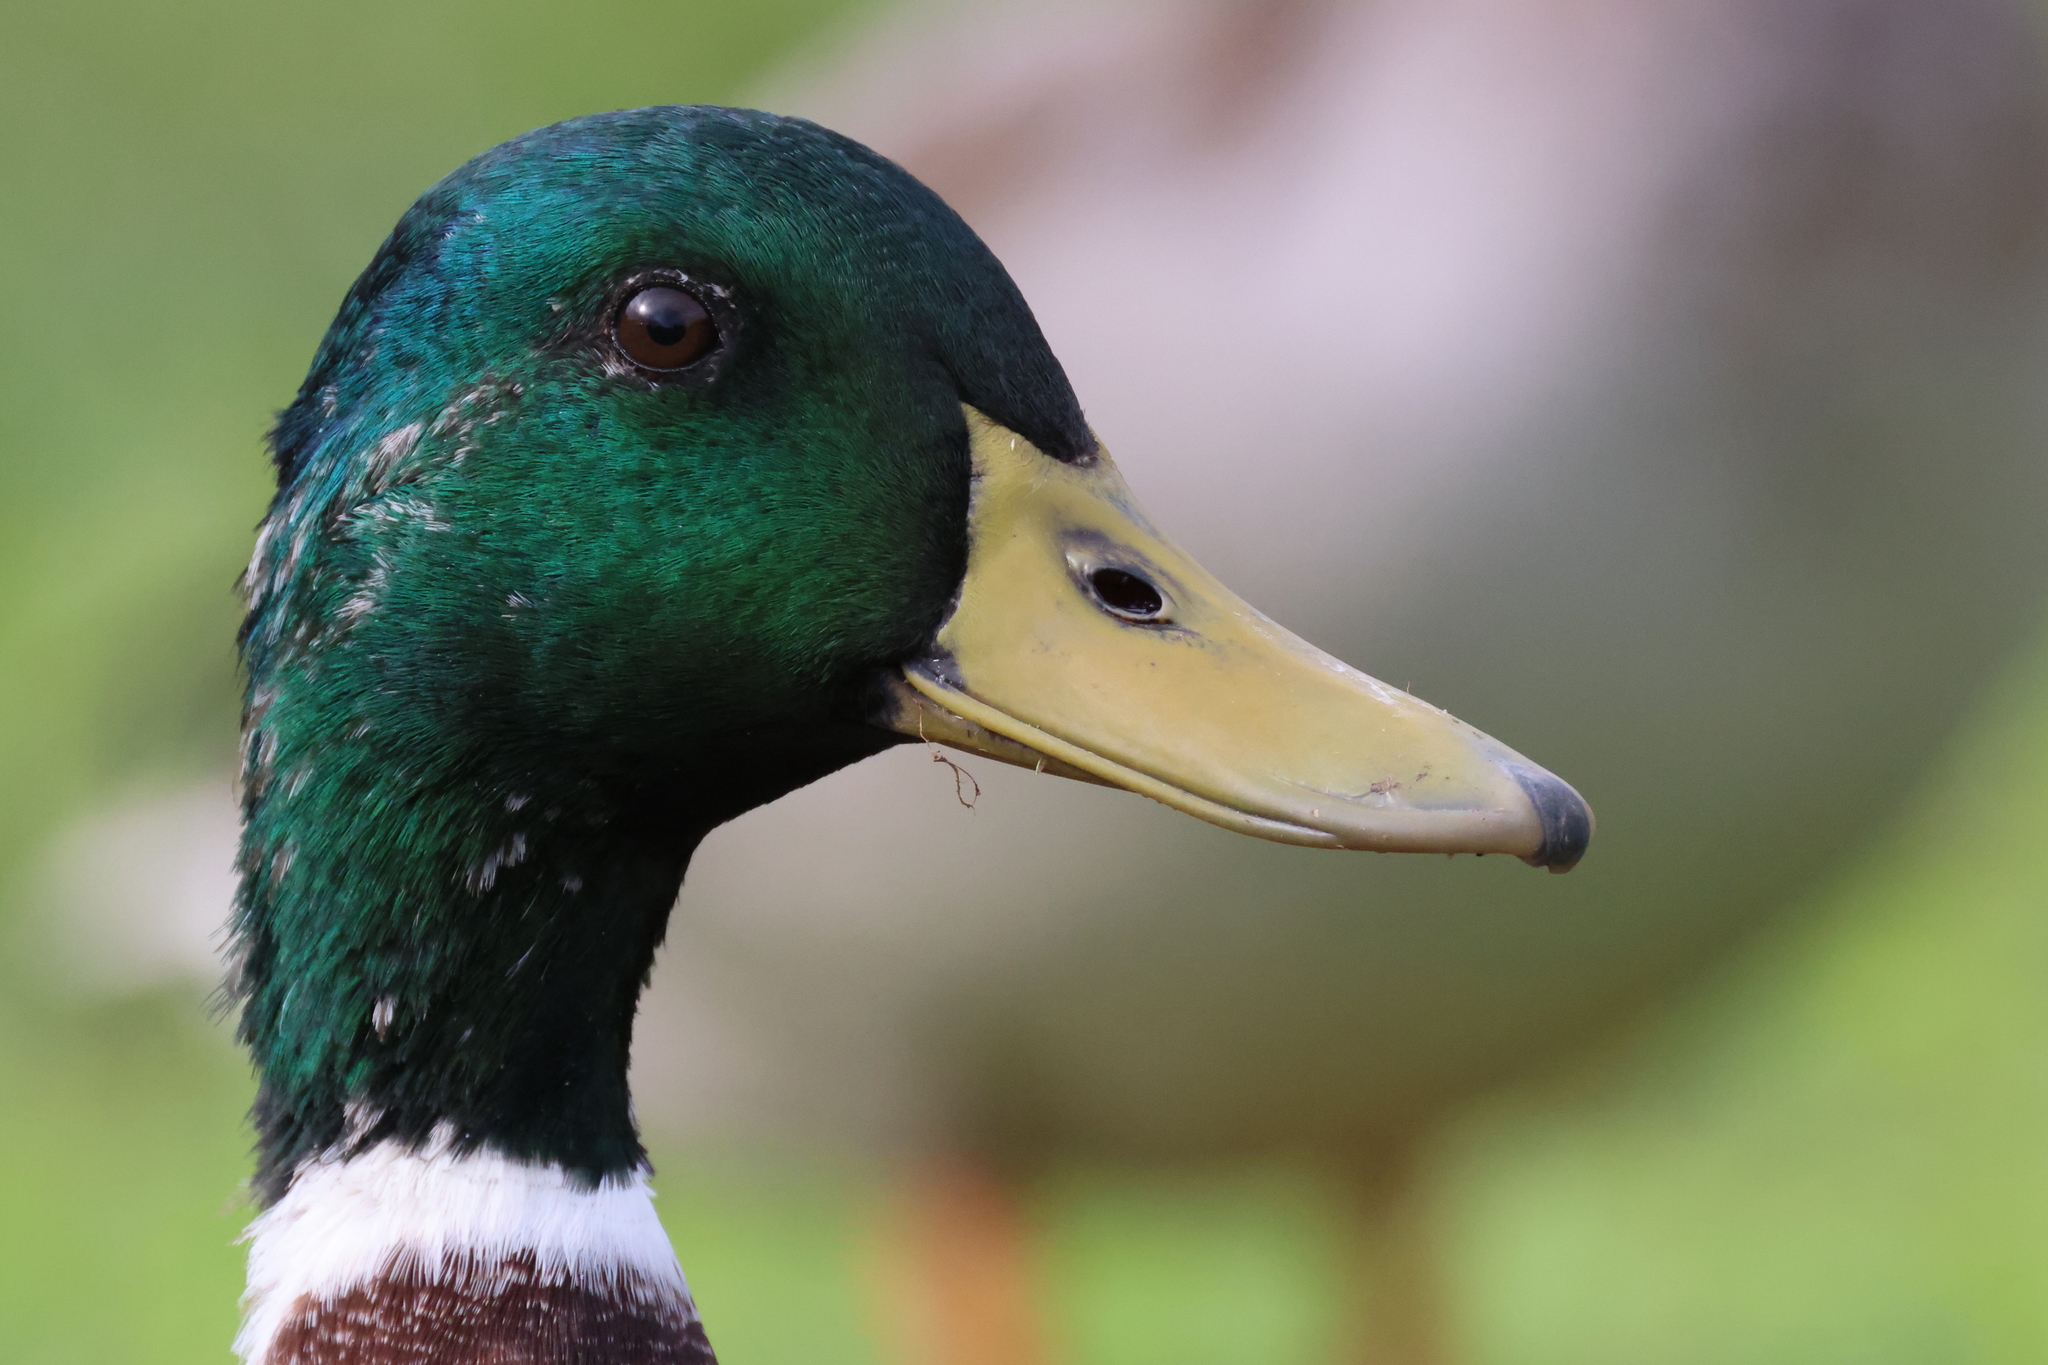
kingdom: Animalia
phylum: Chordata
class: Aves
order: Anseriformes
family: Anatidae
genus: Anas
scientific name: Anas platyrhynchos
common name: Mallard
